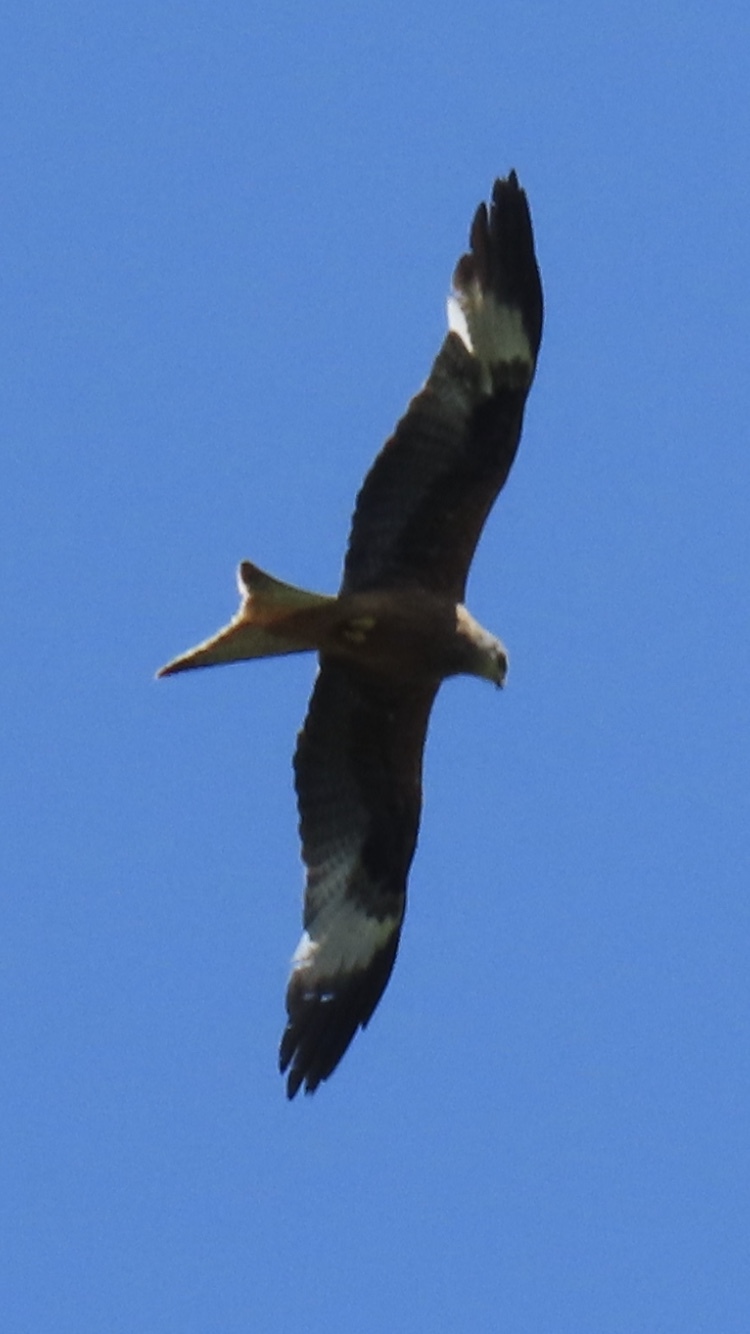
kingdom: Animalia
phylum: Chordata
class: Aves
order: Accipitriformes
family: Accipitridae
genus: Milvus
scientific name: Milvus milvus
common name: Red kite
